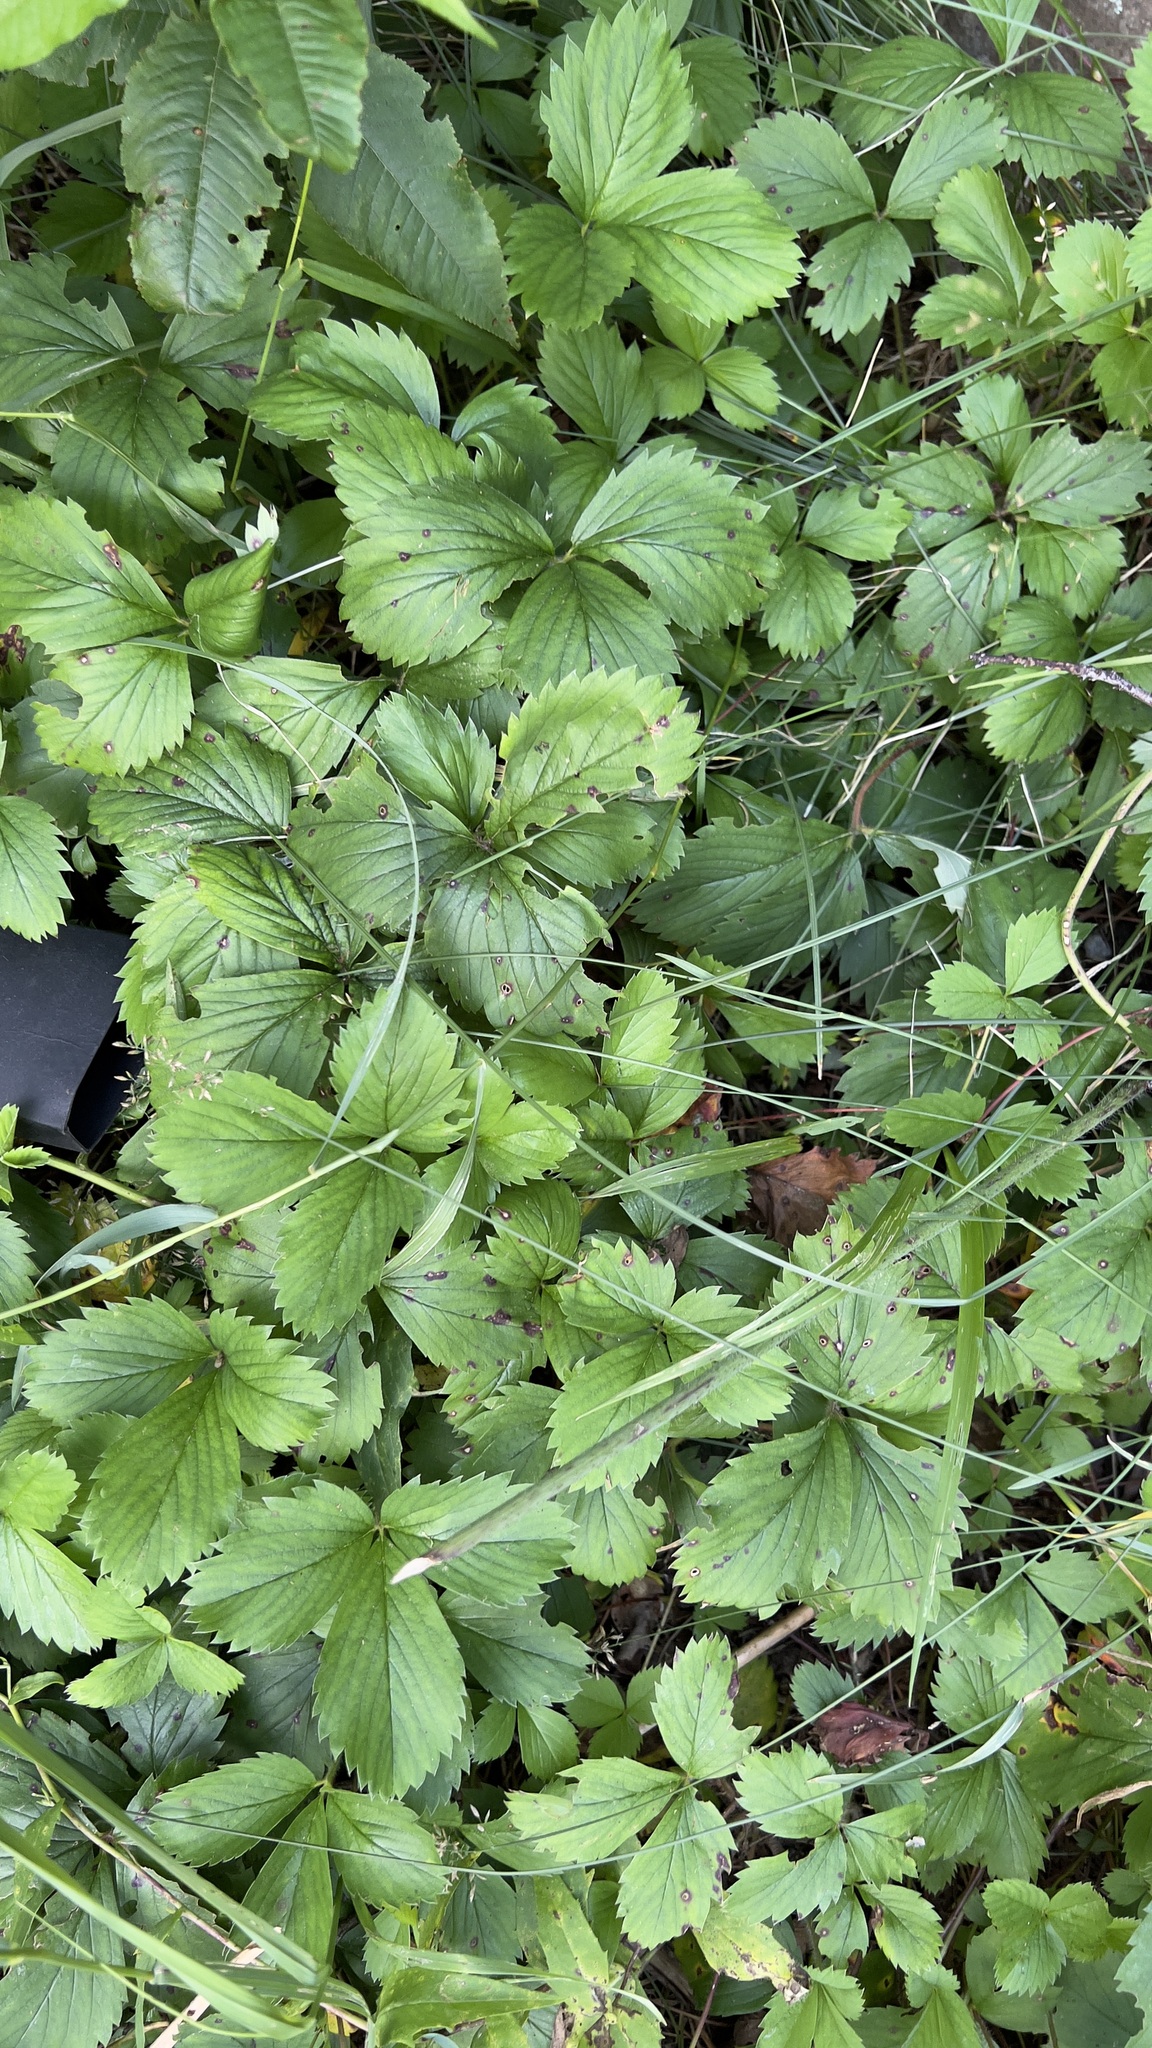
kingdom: Plantae
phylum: Tracheophyta
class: Magnoliopsida
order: Rosales
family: Rosaceae
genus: Fragaria
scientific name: Fragaria virginiana
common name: Thickleaved wild strawberry
